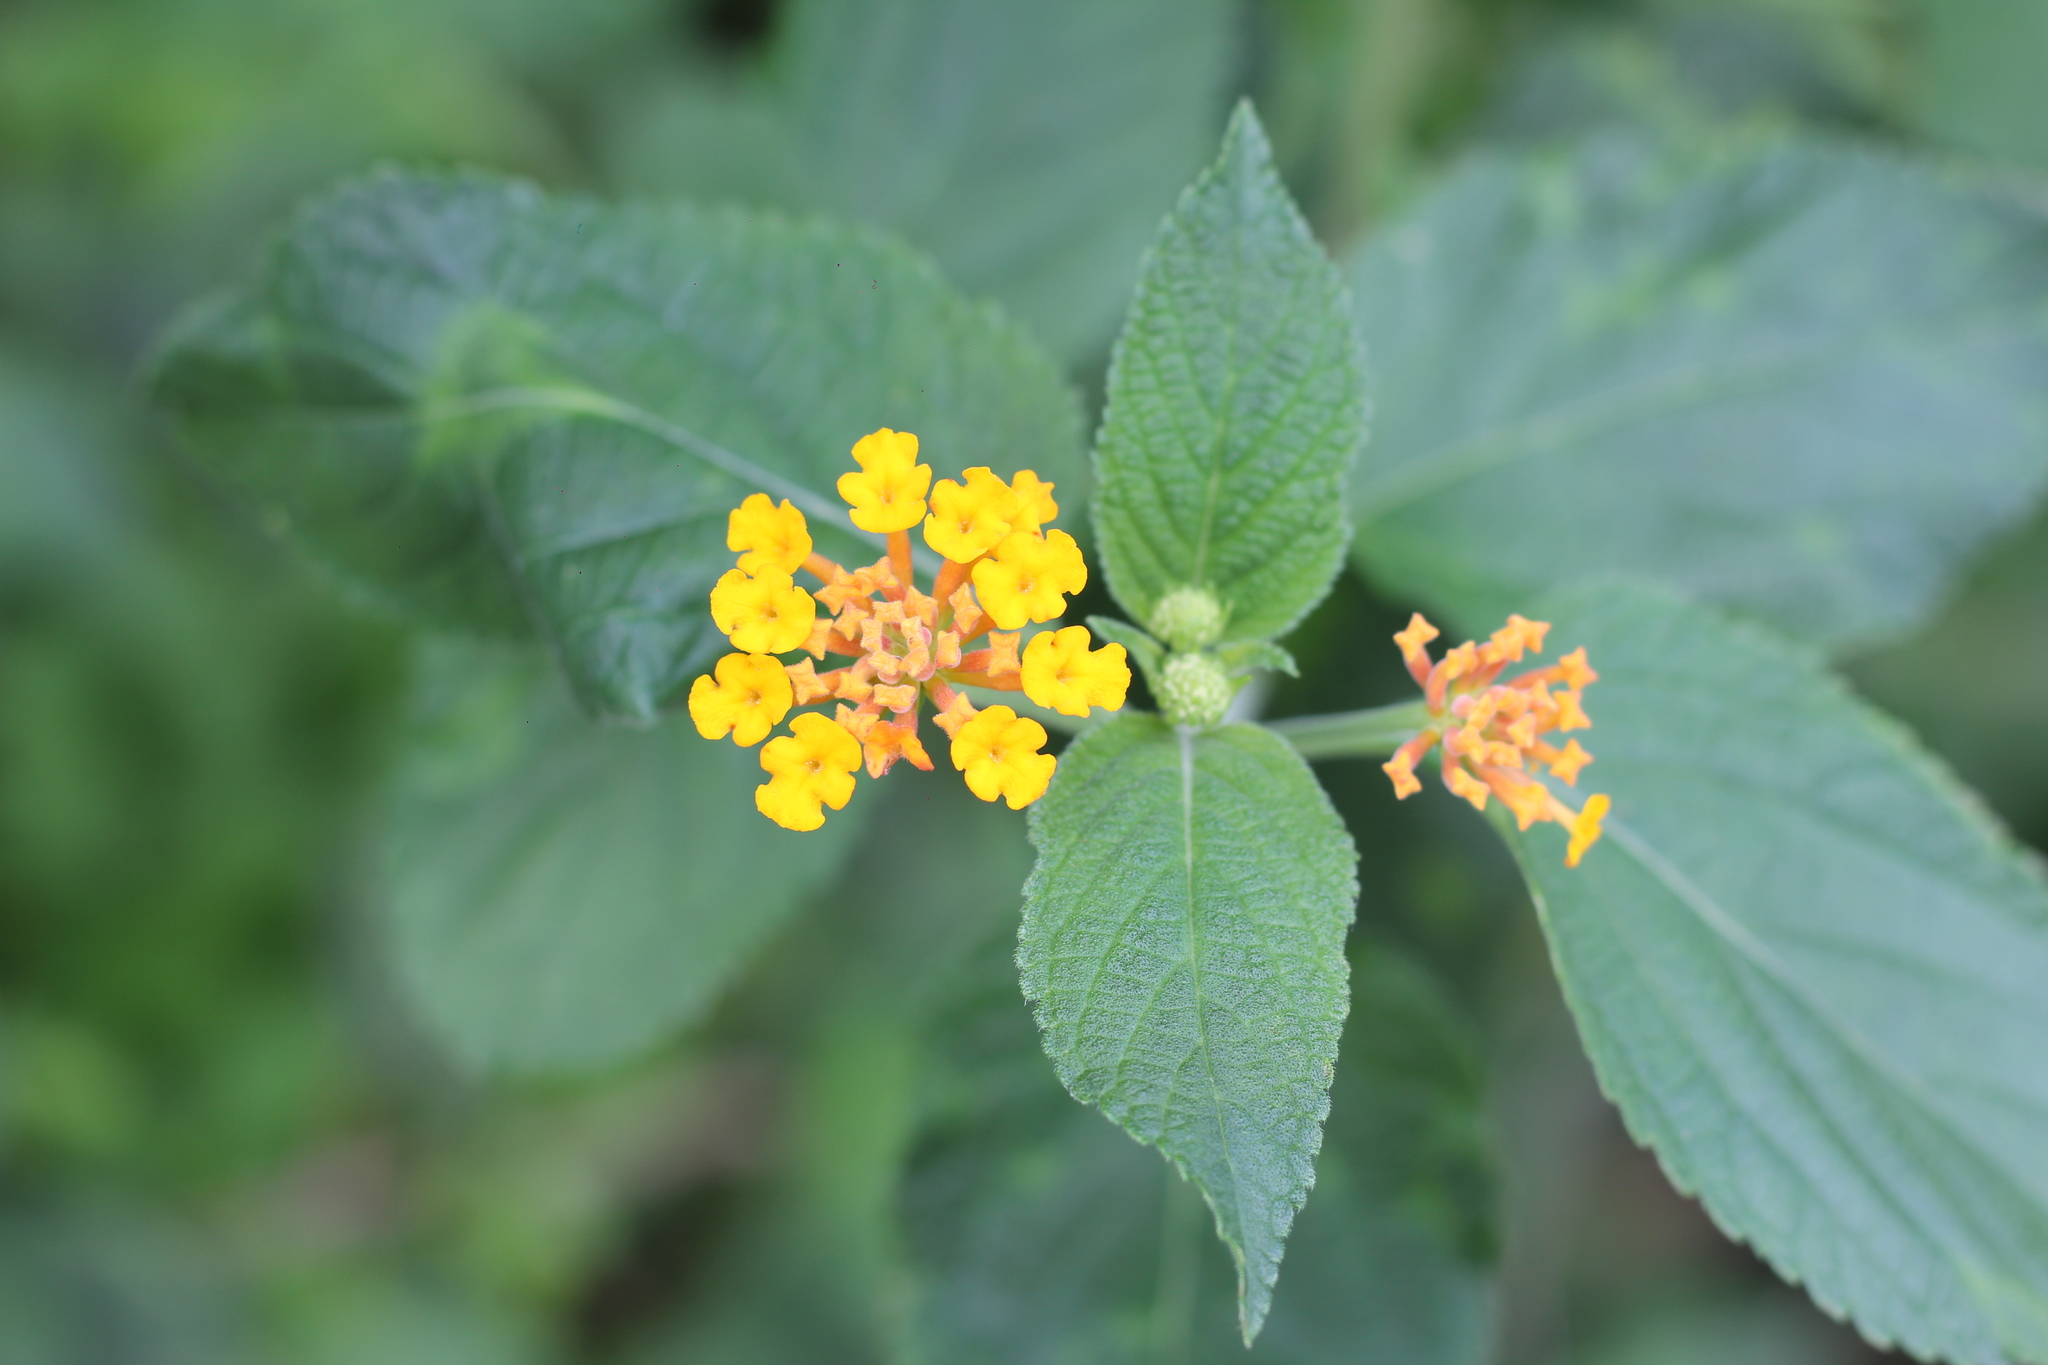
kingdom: Plantae
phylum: Tracheophyta
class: Magnoliopsida
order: Lamiales
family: Verbenaceae
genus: Lantana
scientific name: Lantana camara
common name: Lantana
